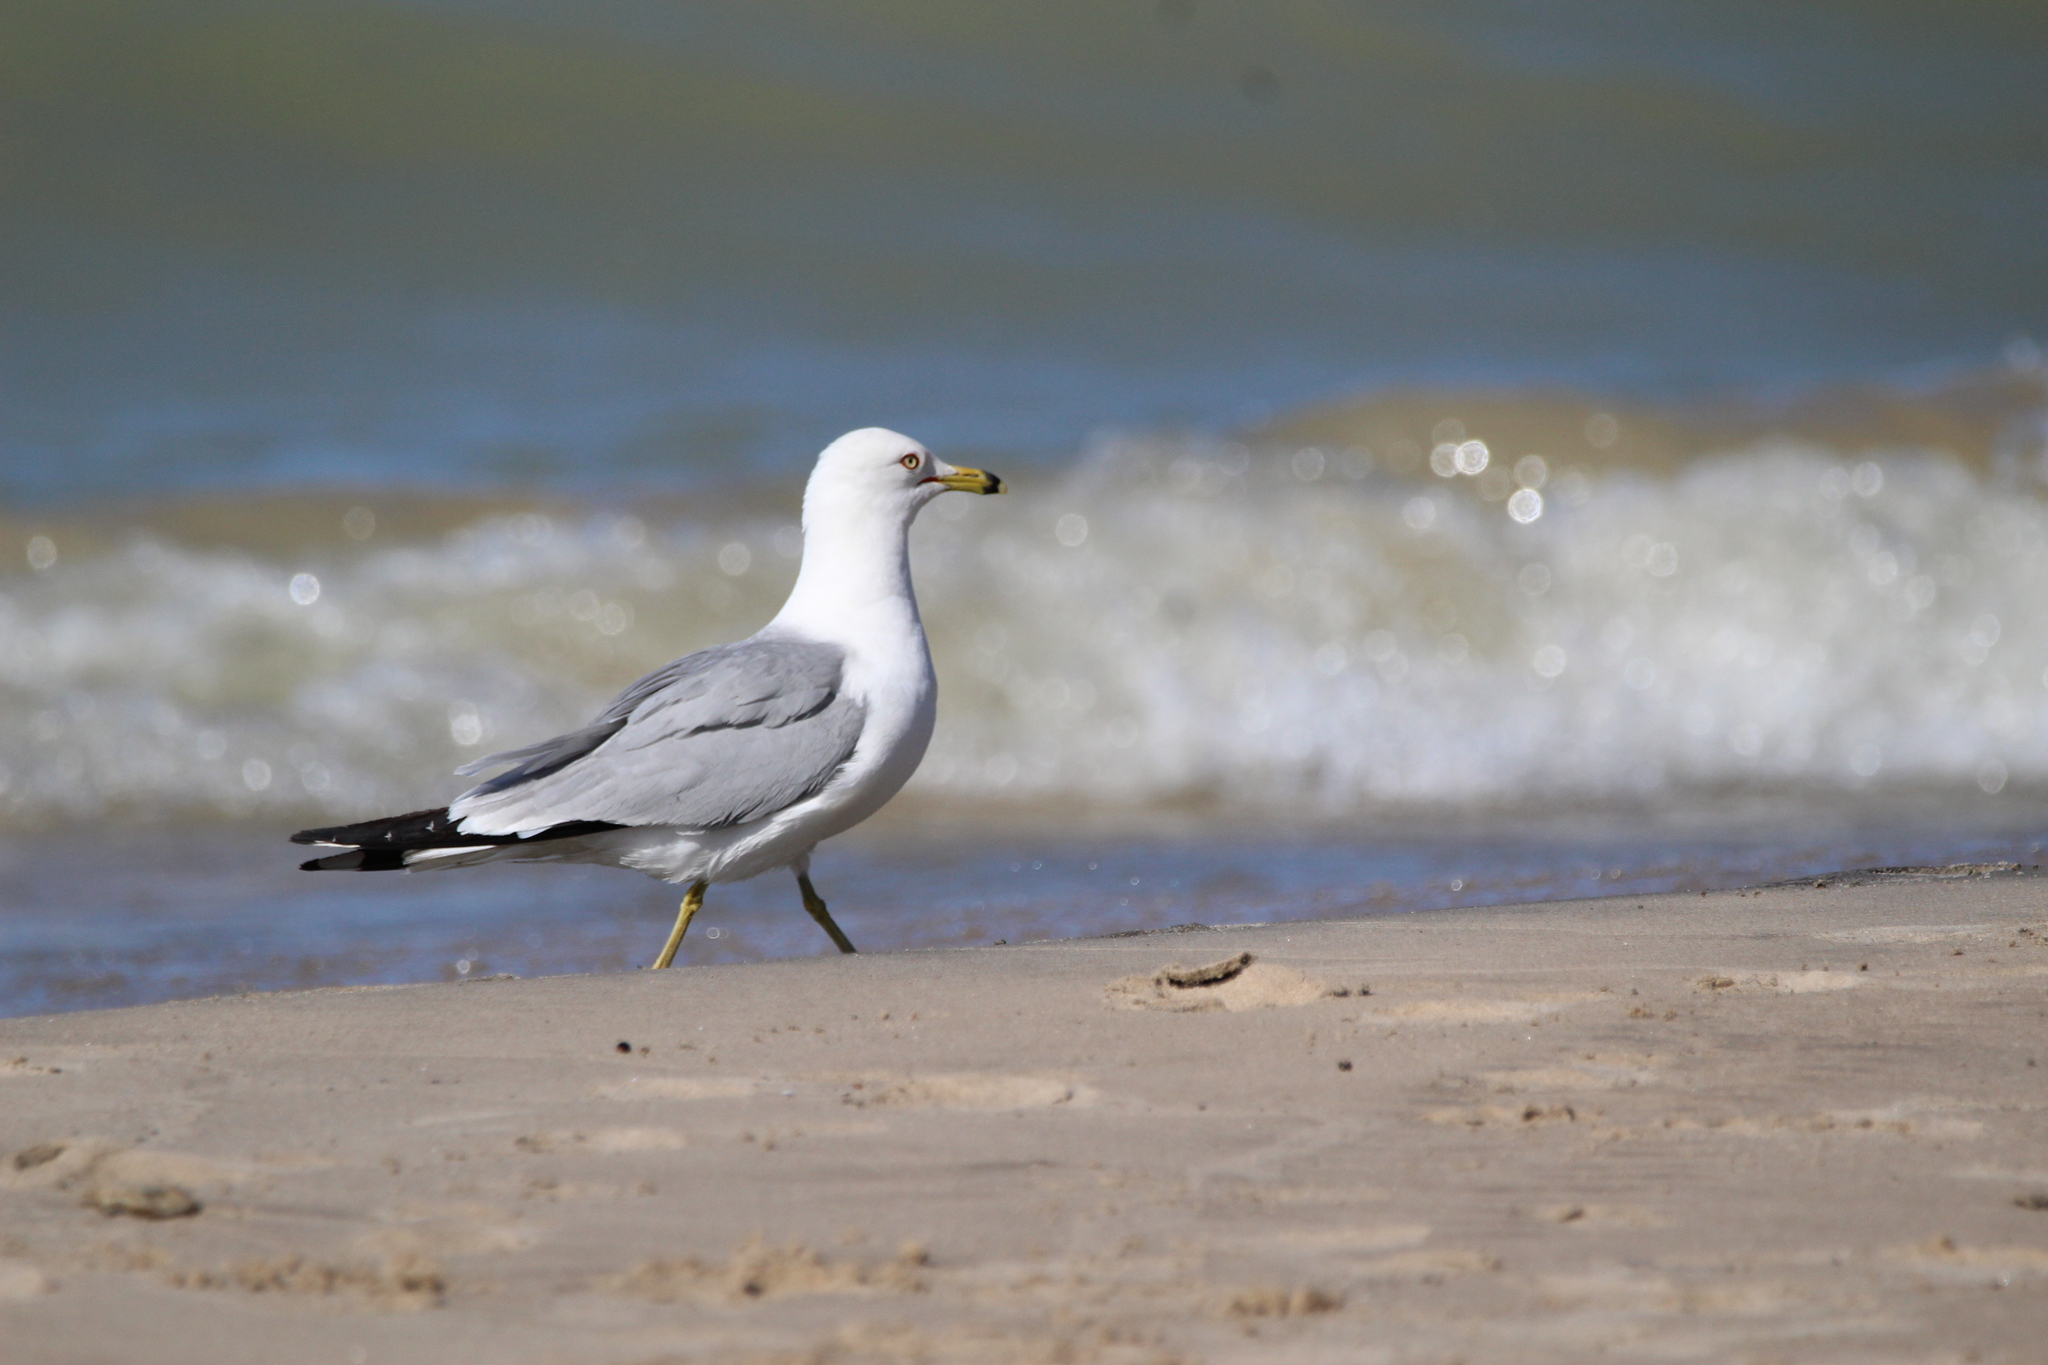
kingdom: Animalia
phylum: Chordata
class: Aves
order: Charadriiformes
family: Laridae
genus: Larus
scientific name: Larus delawarensis
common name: Ring-billed gull
